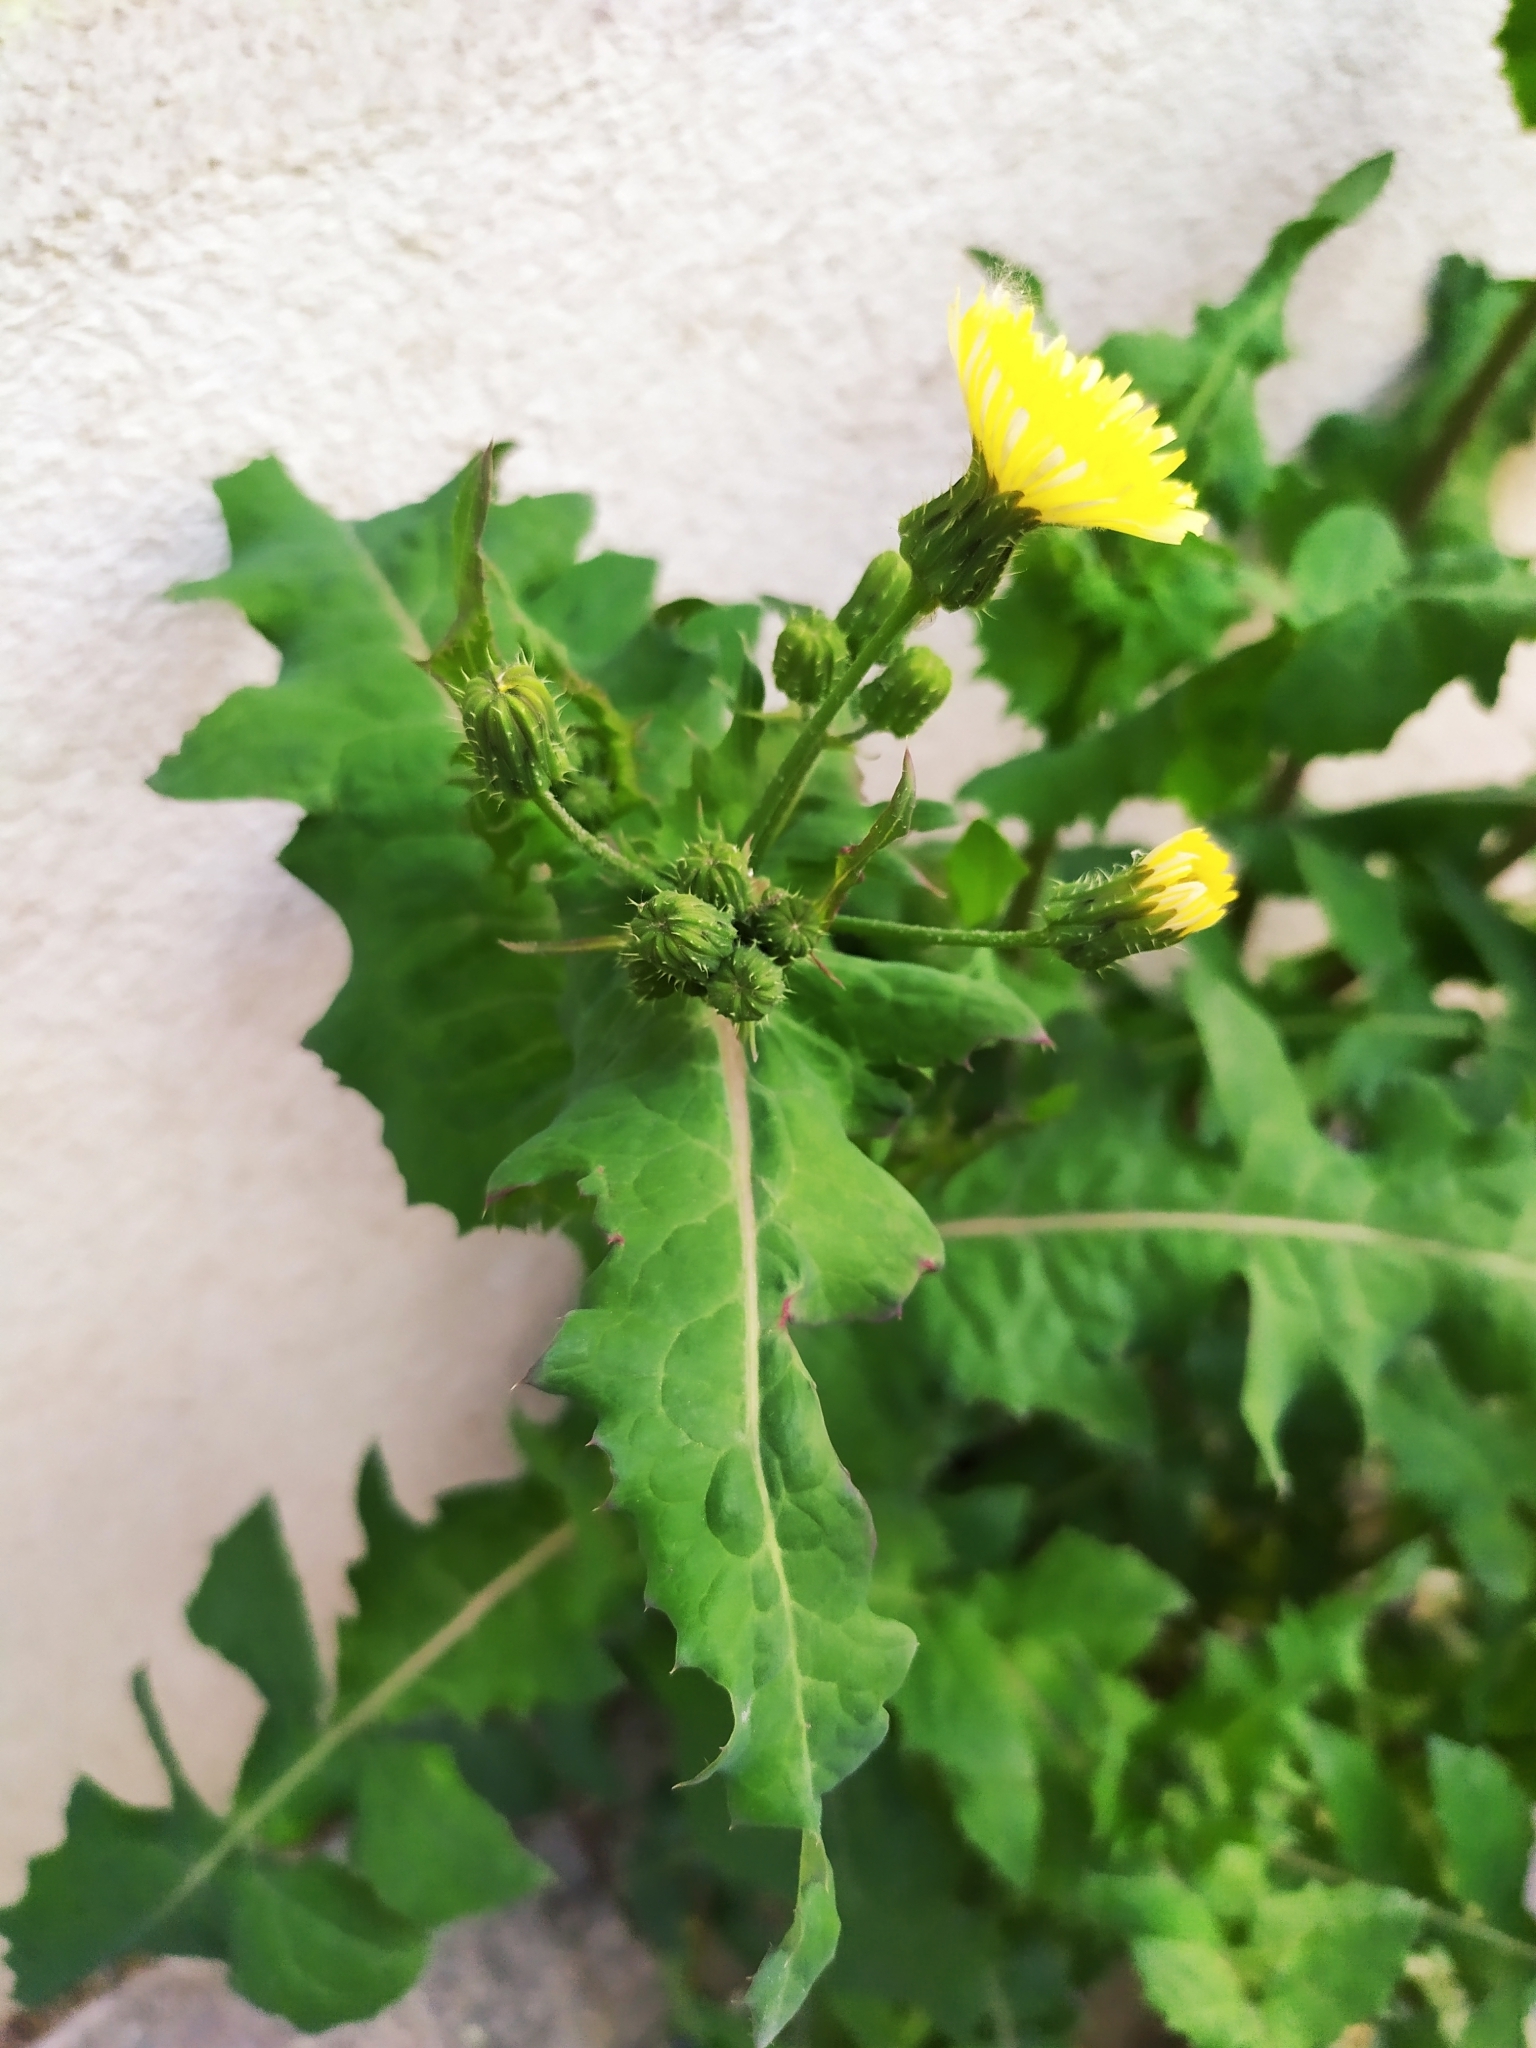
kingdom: Plantae
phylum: Tracheophyta
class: Magnoliopsida
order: Asterales
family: Asteraceae
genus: Sonchus
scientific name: Sonchus oleraceus
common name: Common sowthistle
